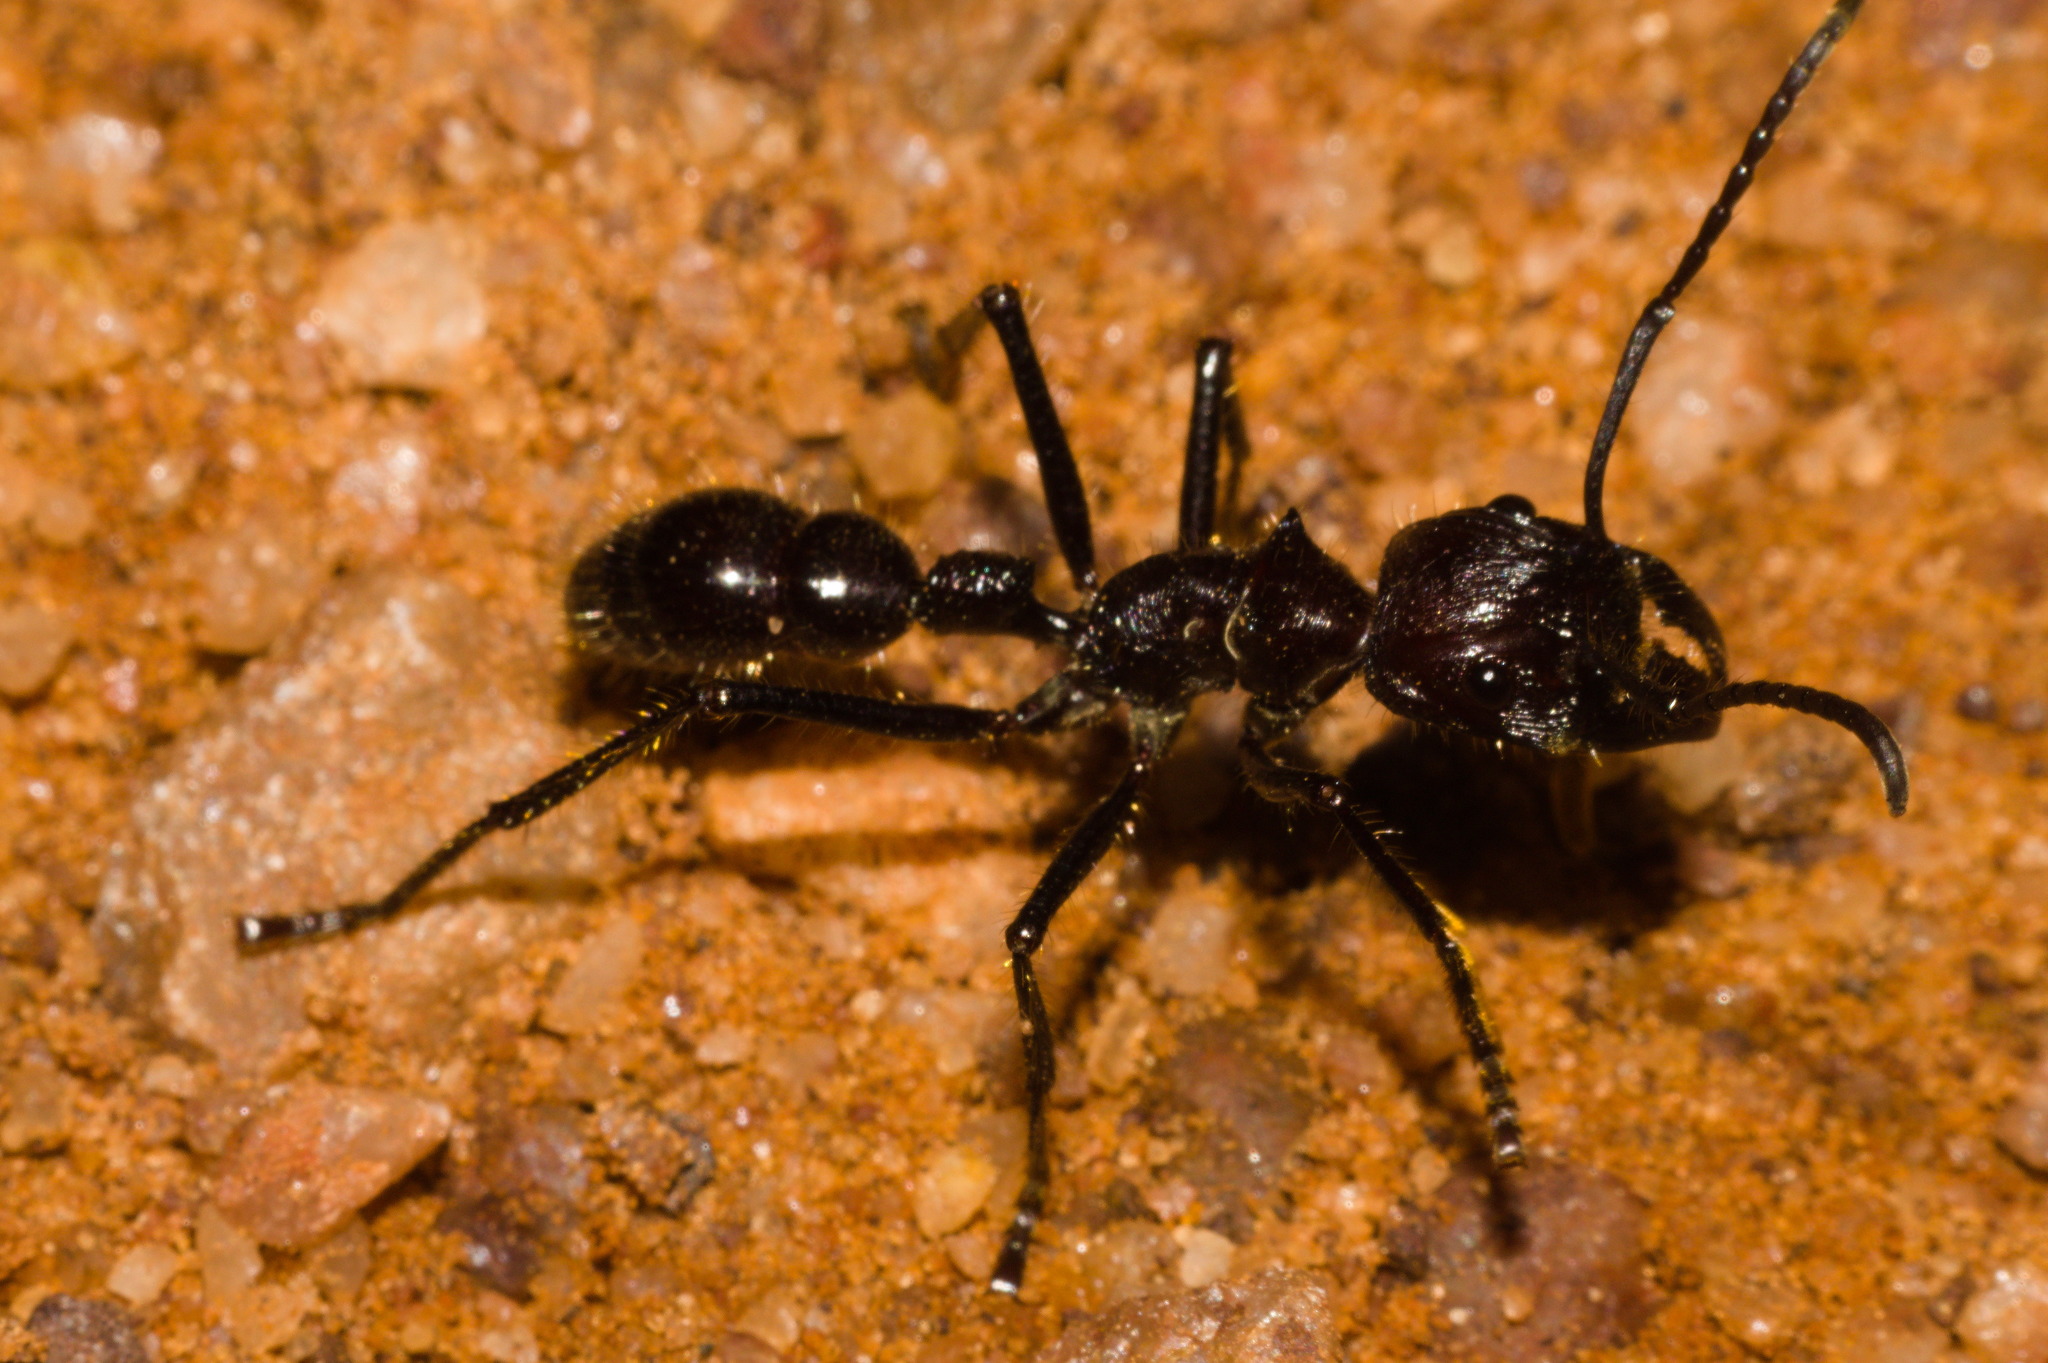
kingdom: Animalia
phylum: Arthropoda
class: Insecta
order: Hymenoptera
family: Formicidae
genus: Paraponera
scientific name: Paraponera clavata
